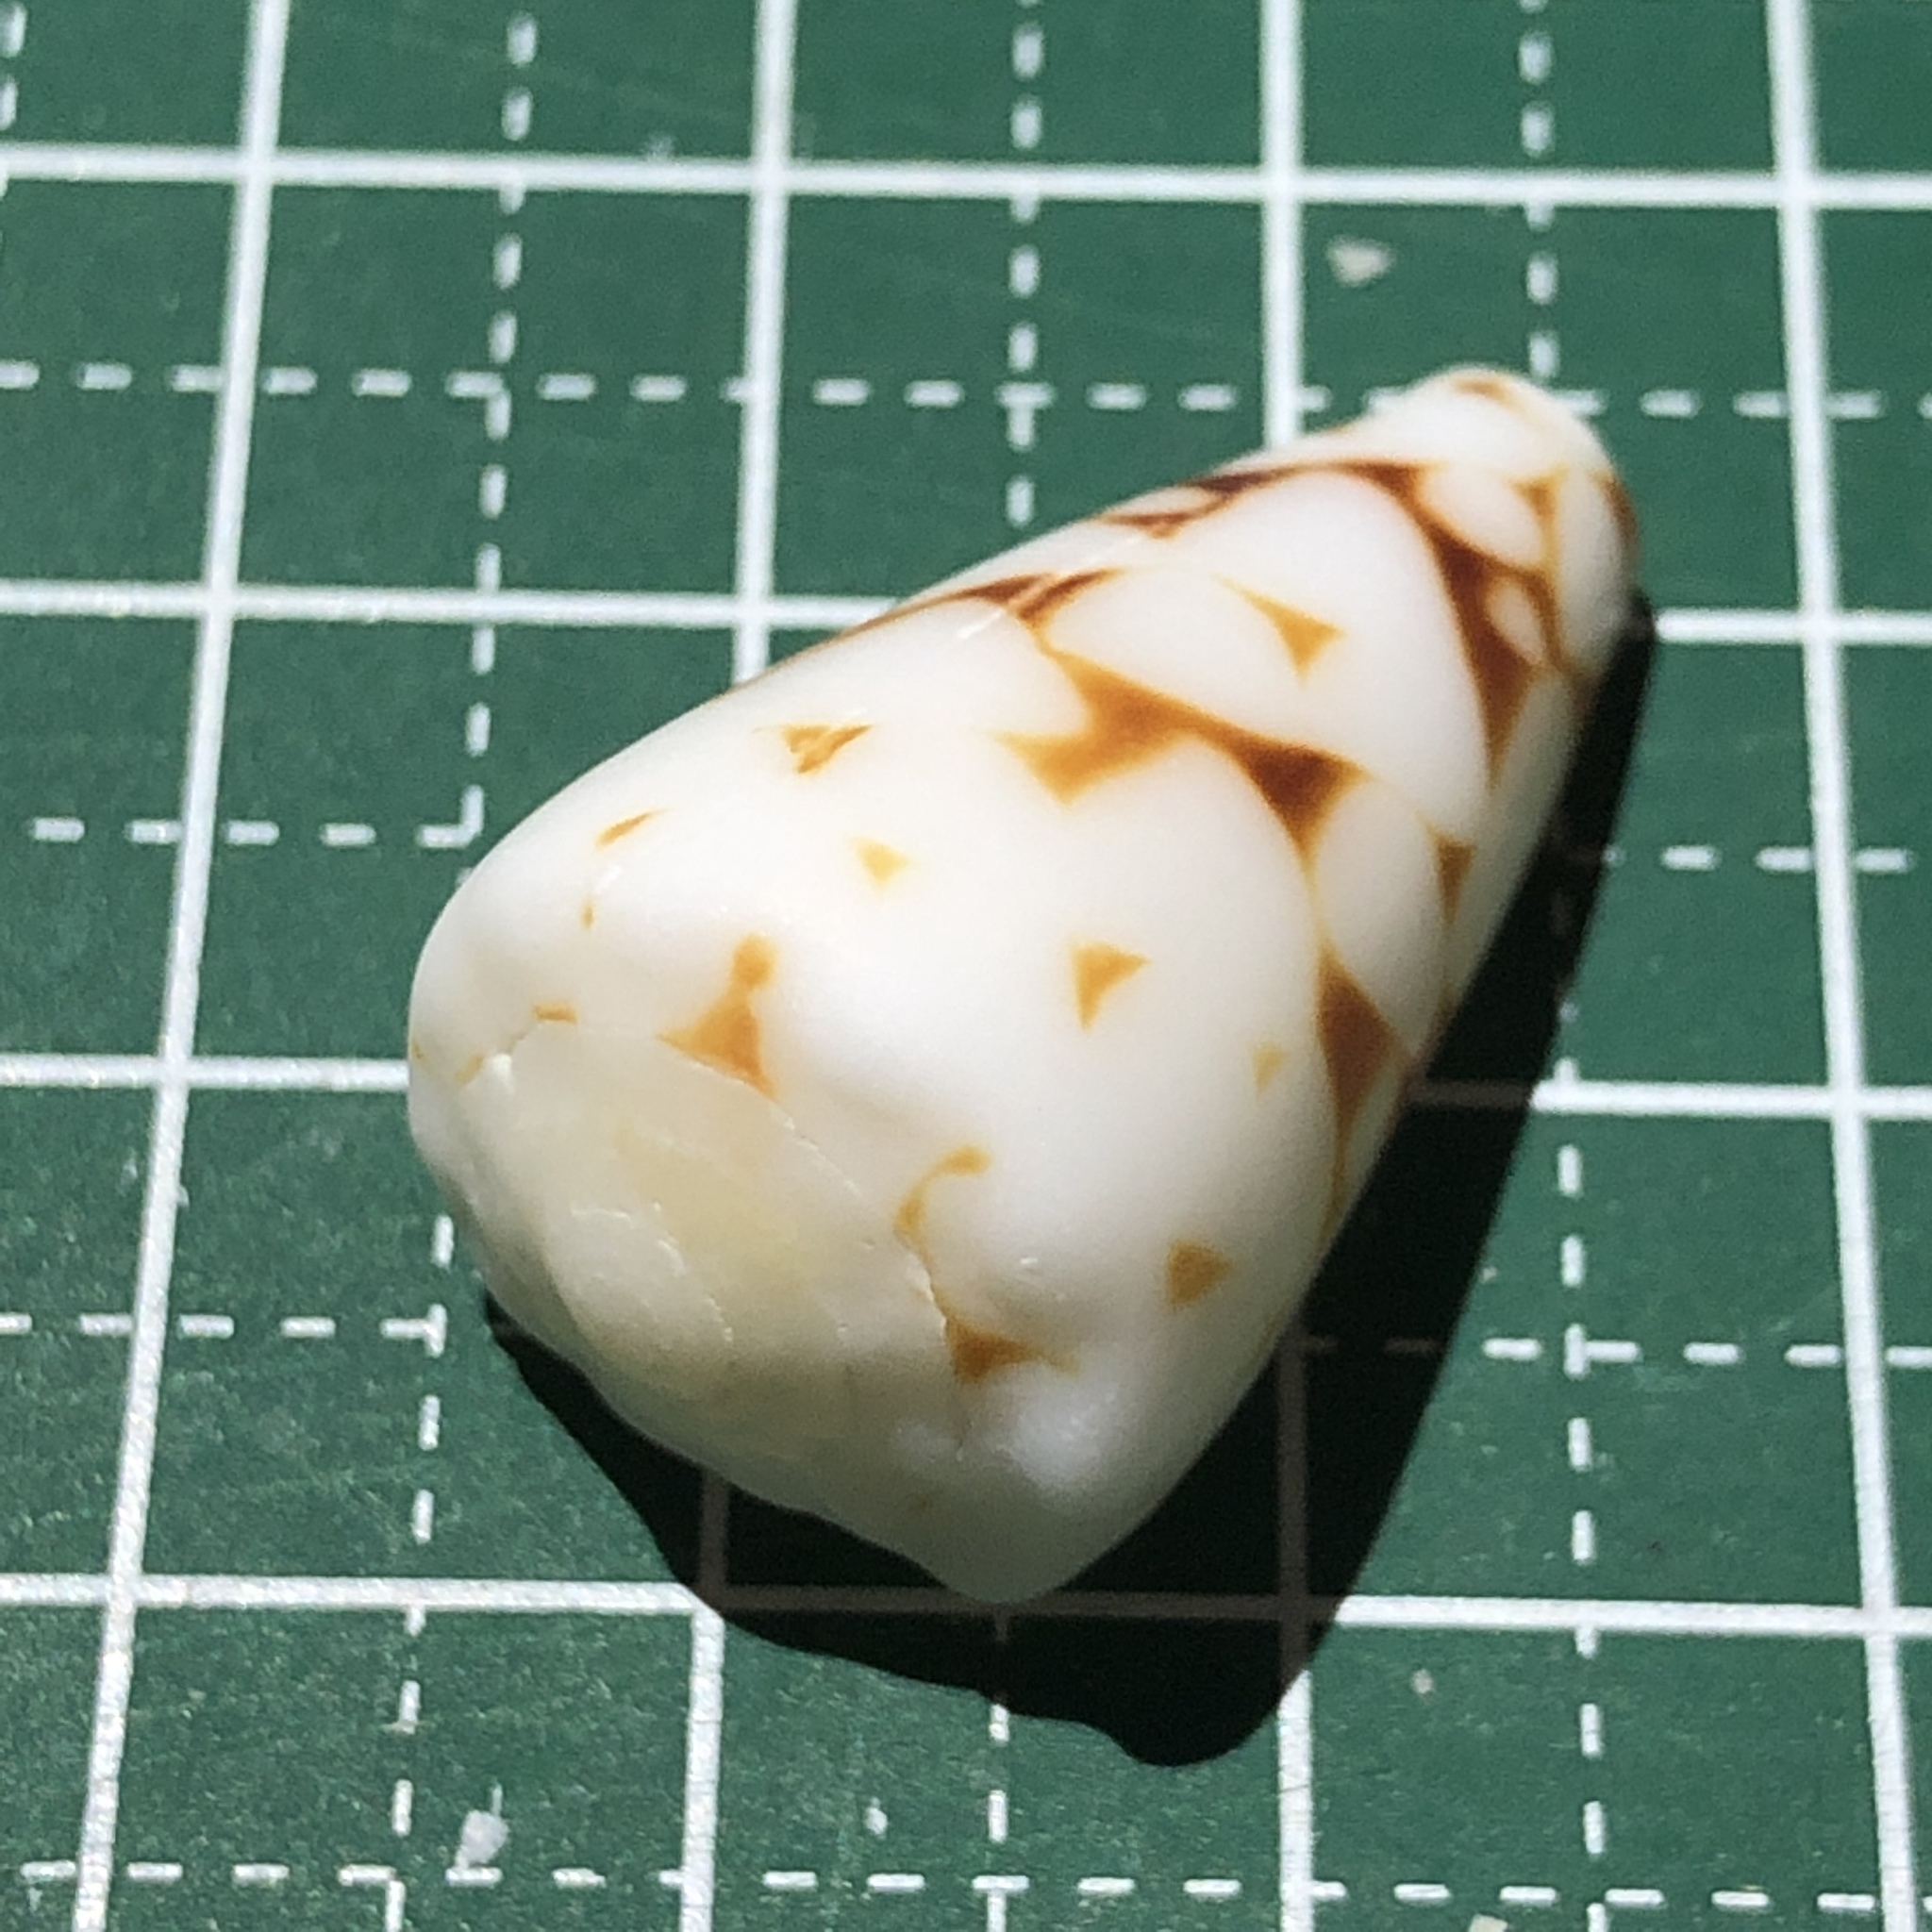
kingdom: Animalia
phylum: Mollusca
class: Gastropoda
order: Neogastropoda
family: Conidae
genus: Conus
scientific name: Conus bandanus
